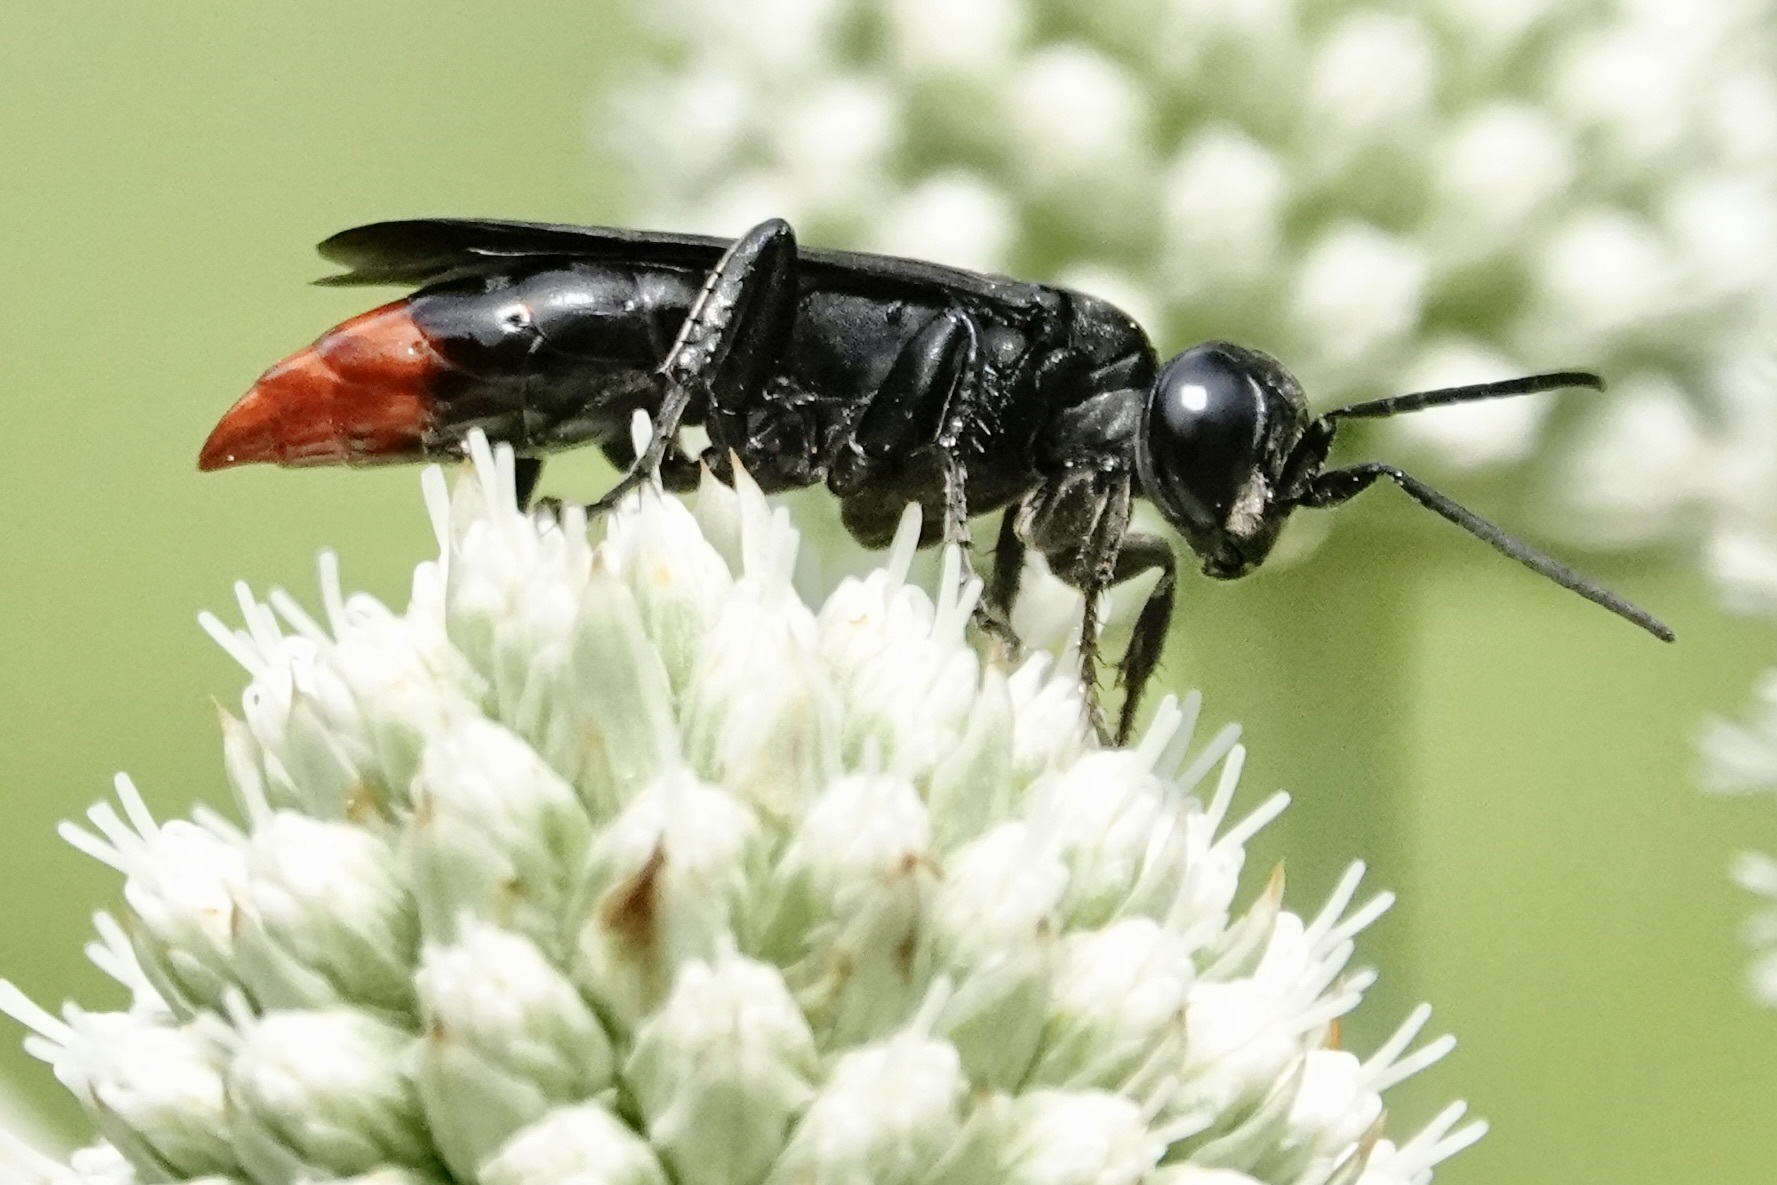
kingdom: Animalia
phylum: Arthropoda
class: Insecta
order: Hymenoptera
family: Crabronidae
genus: Larra
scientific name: Larra analis
